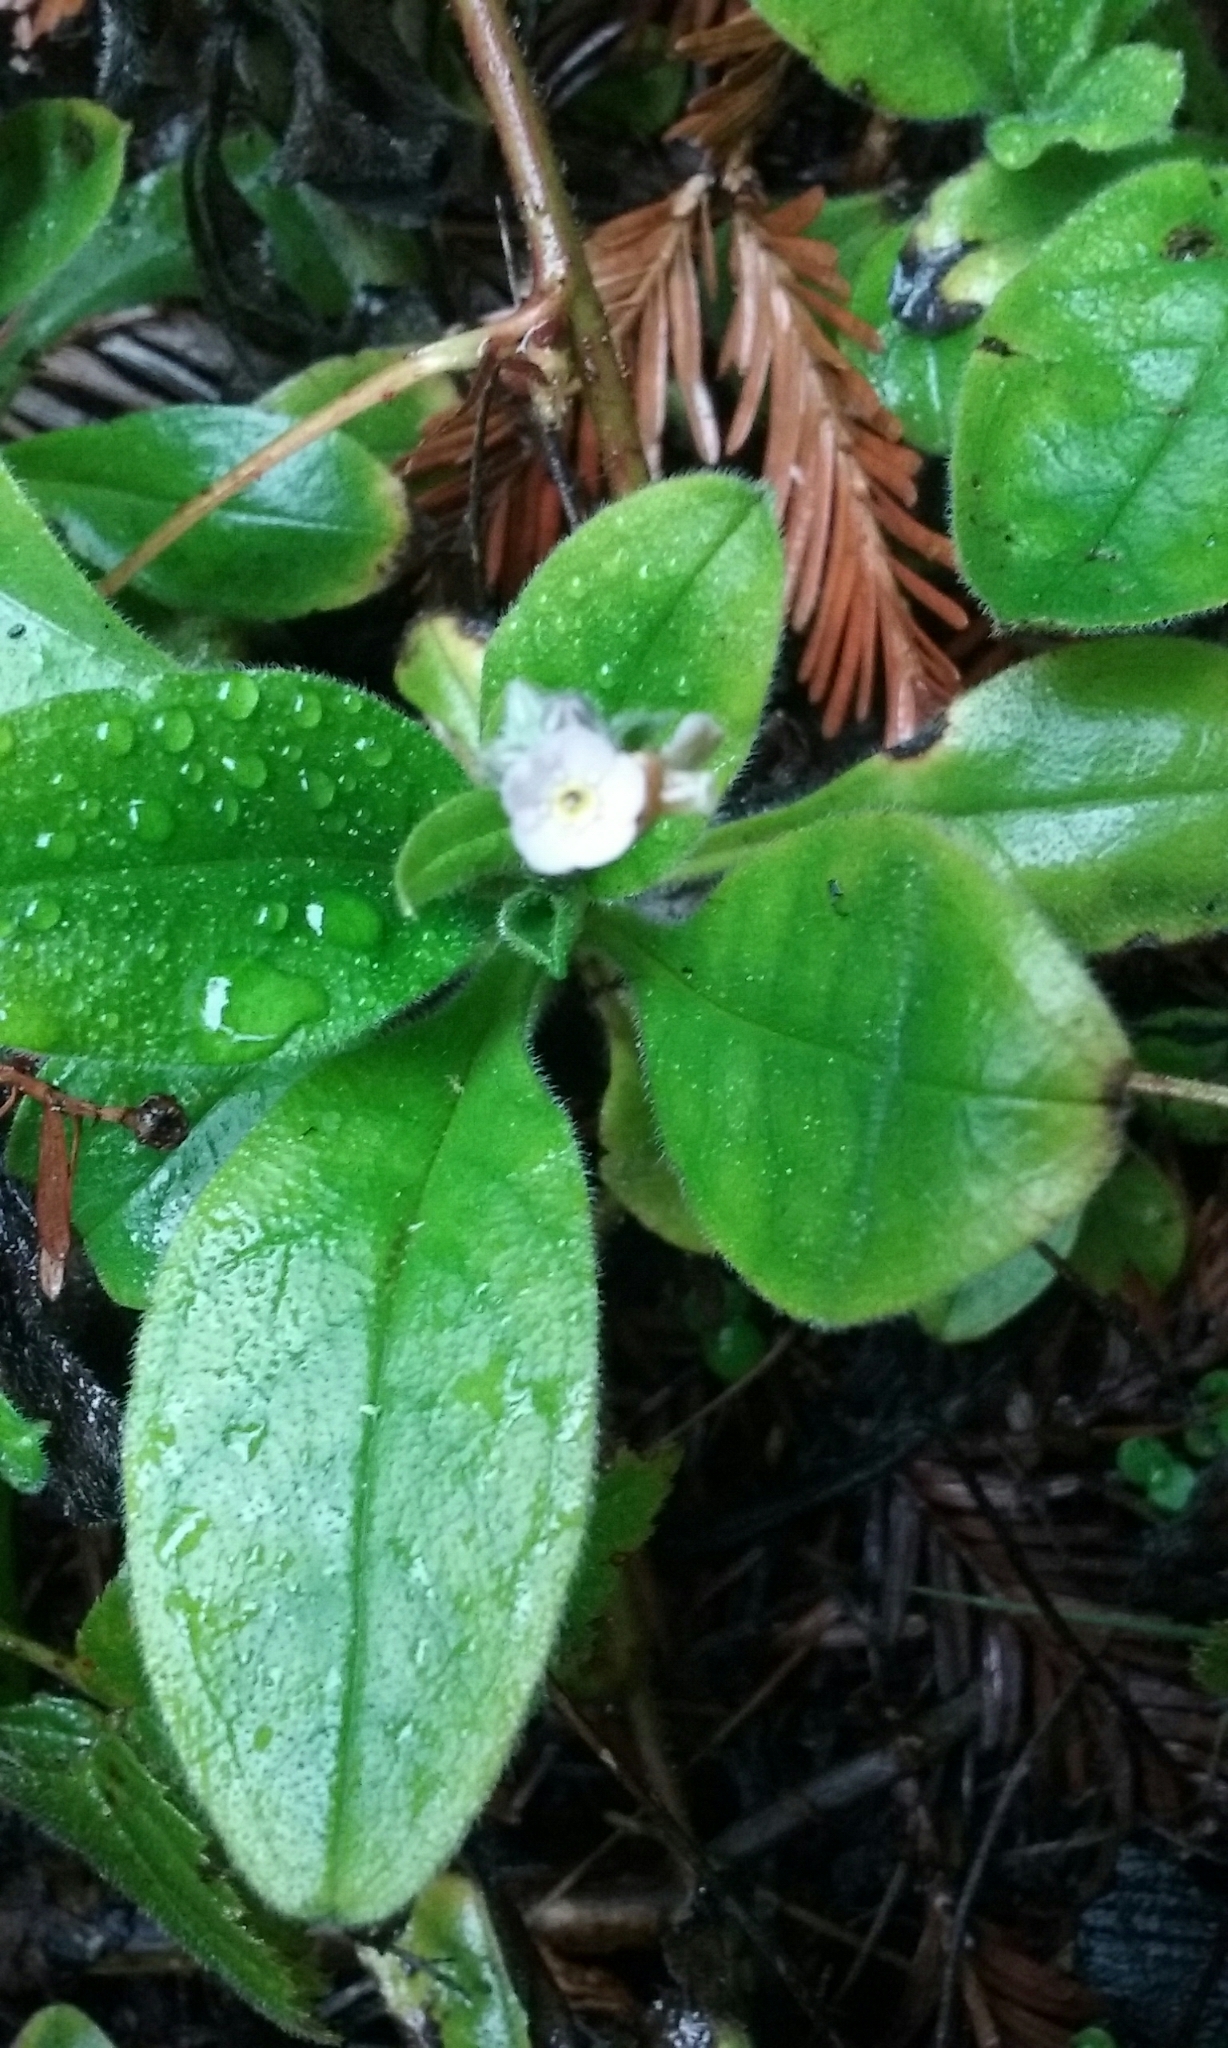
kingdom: Plantae
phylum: Tracheophyta
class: Magnoliopsida
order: Boraginales
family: Boraginaceae
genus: Myosotis
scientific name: Myosotis latifolia
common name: Broadleaf forget-me-not
